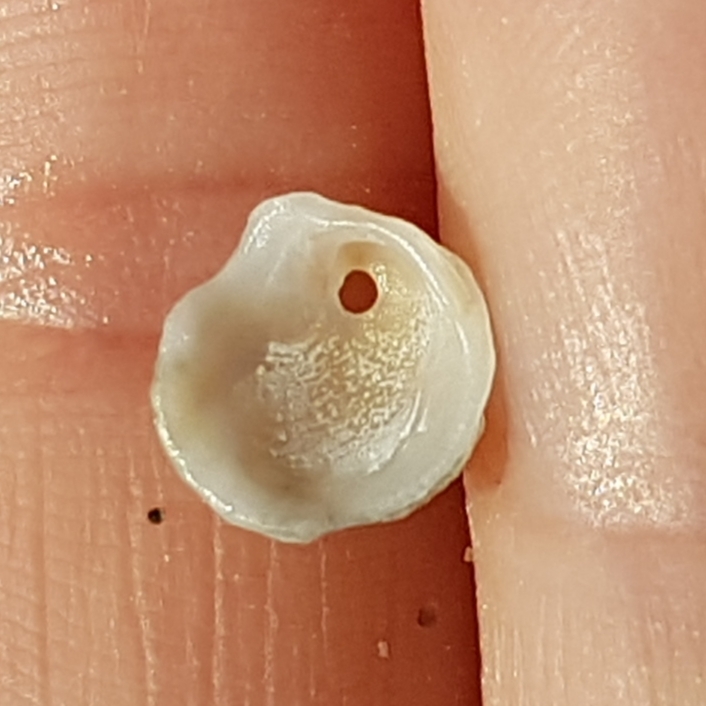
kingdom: Animalia
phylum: Mollusca
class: Bivalvia
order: Venerida
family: Chamidae
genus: Chama
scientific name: Chama gryphoides
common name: Common jewel box
